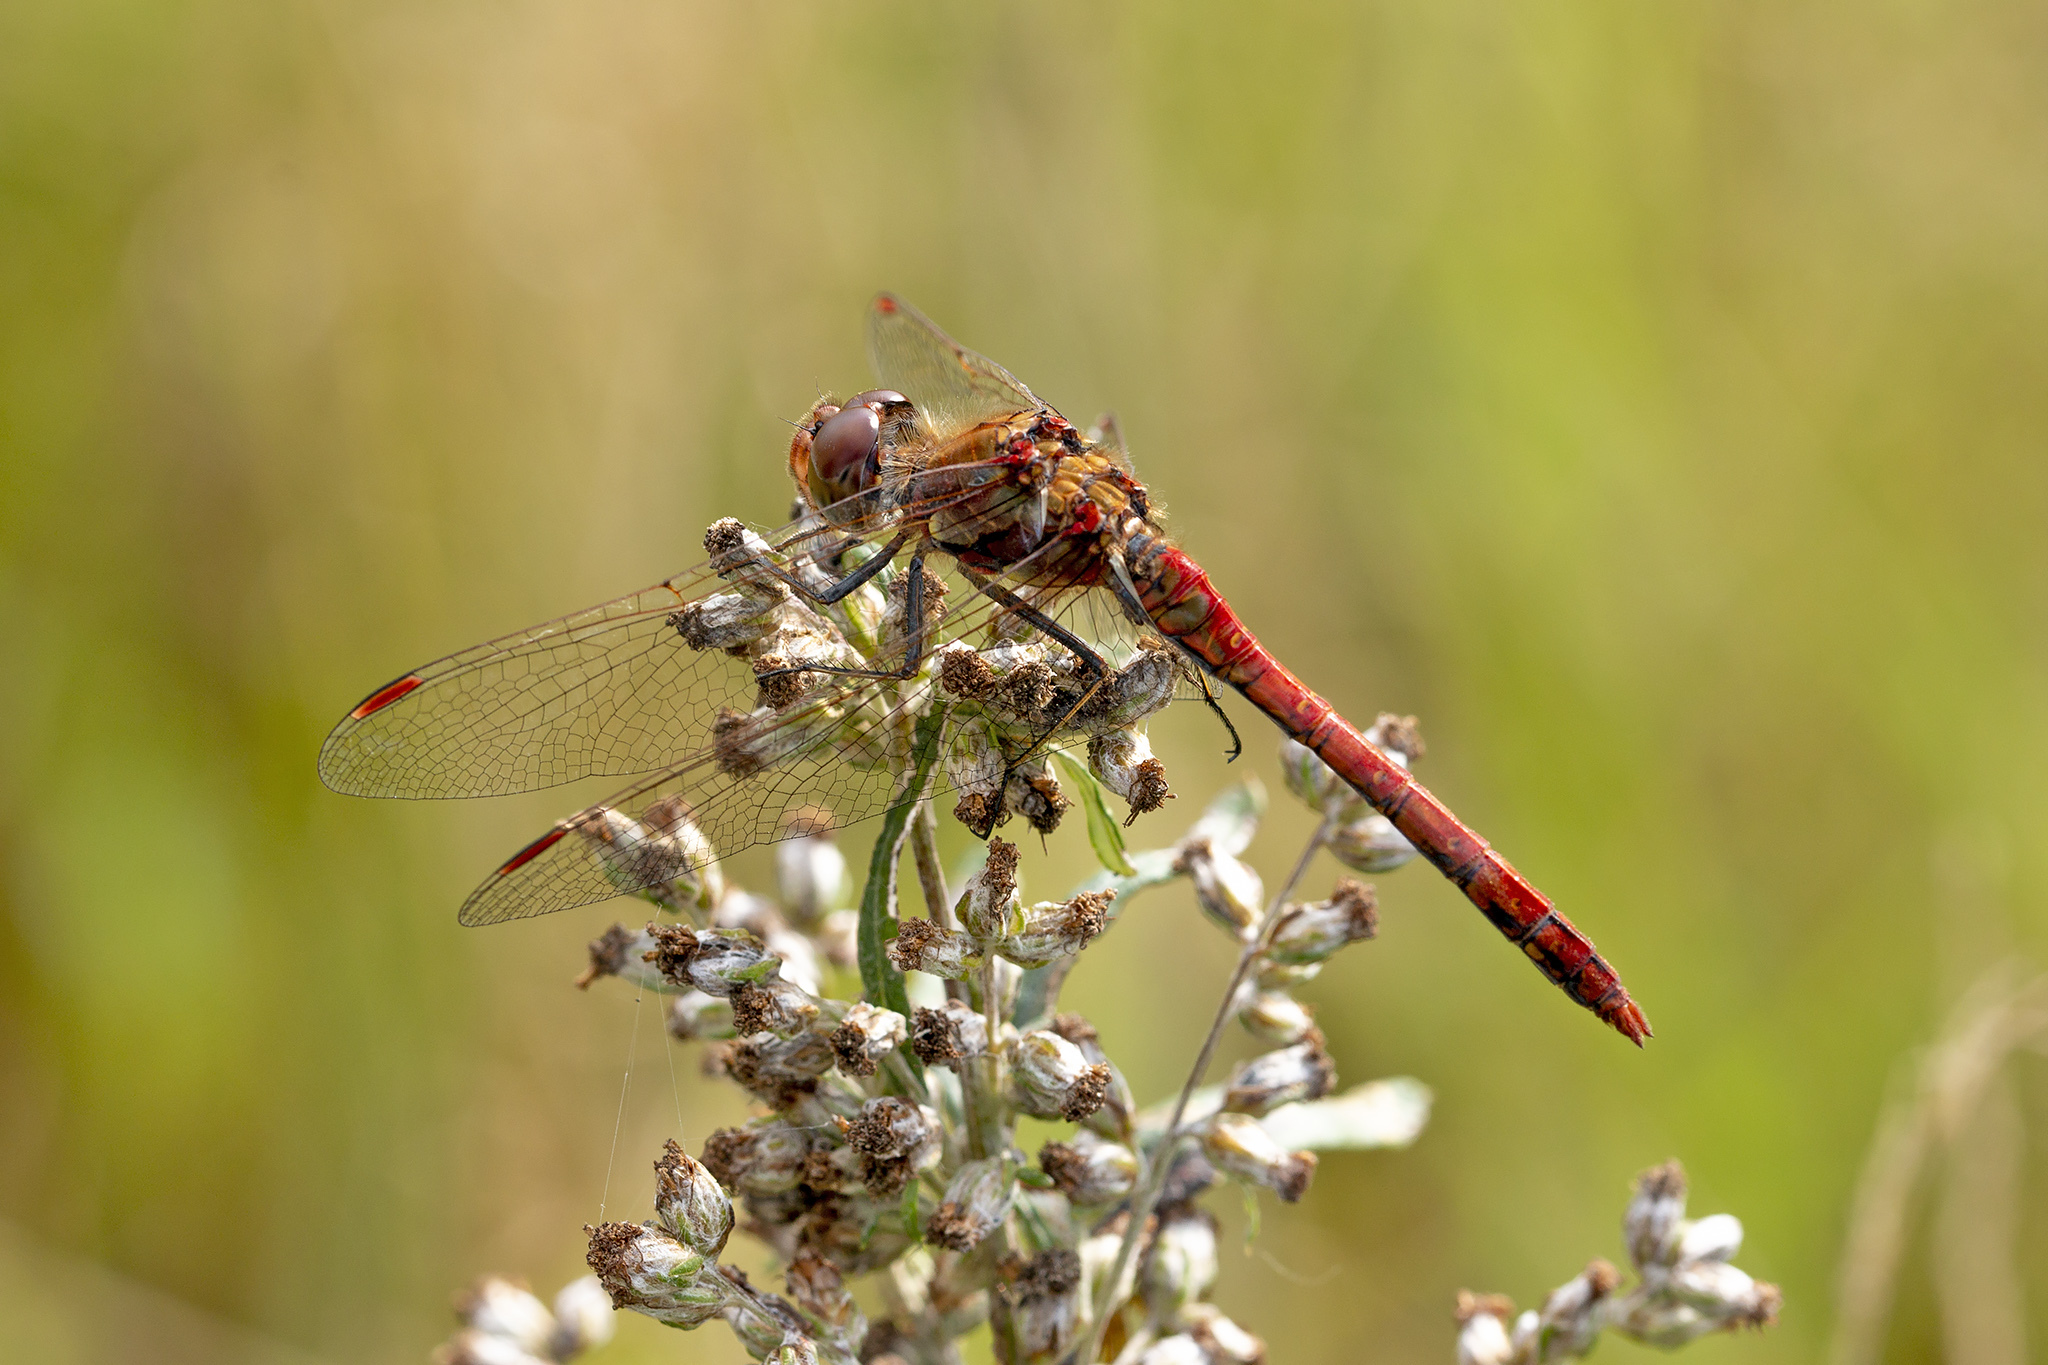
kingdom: Animalia
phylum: Arthropoda
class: Insecta
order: Odonata
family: Libellulidae
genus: Sympetrum
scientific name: Sympetrum striolatum
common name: Common darter
